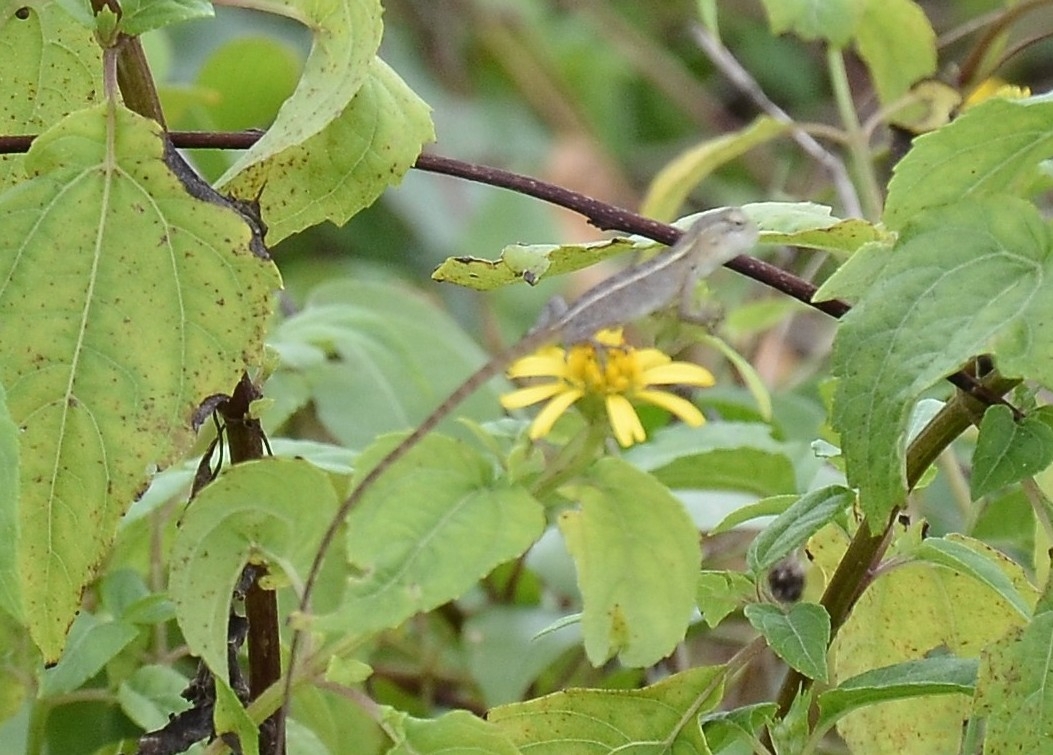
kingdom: Animalia
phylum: Chordata
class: Squamata
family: Agamidae
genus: Calotes
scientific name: Calotes versicolor
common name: Oriental garden lizard
